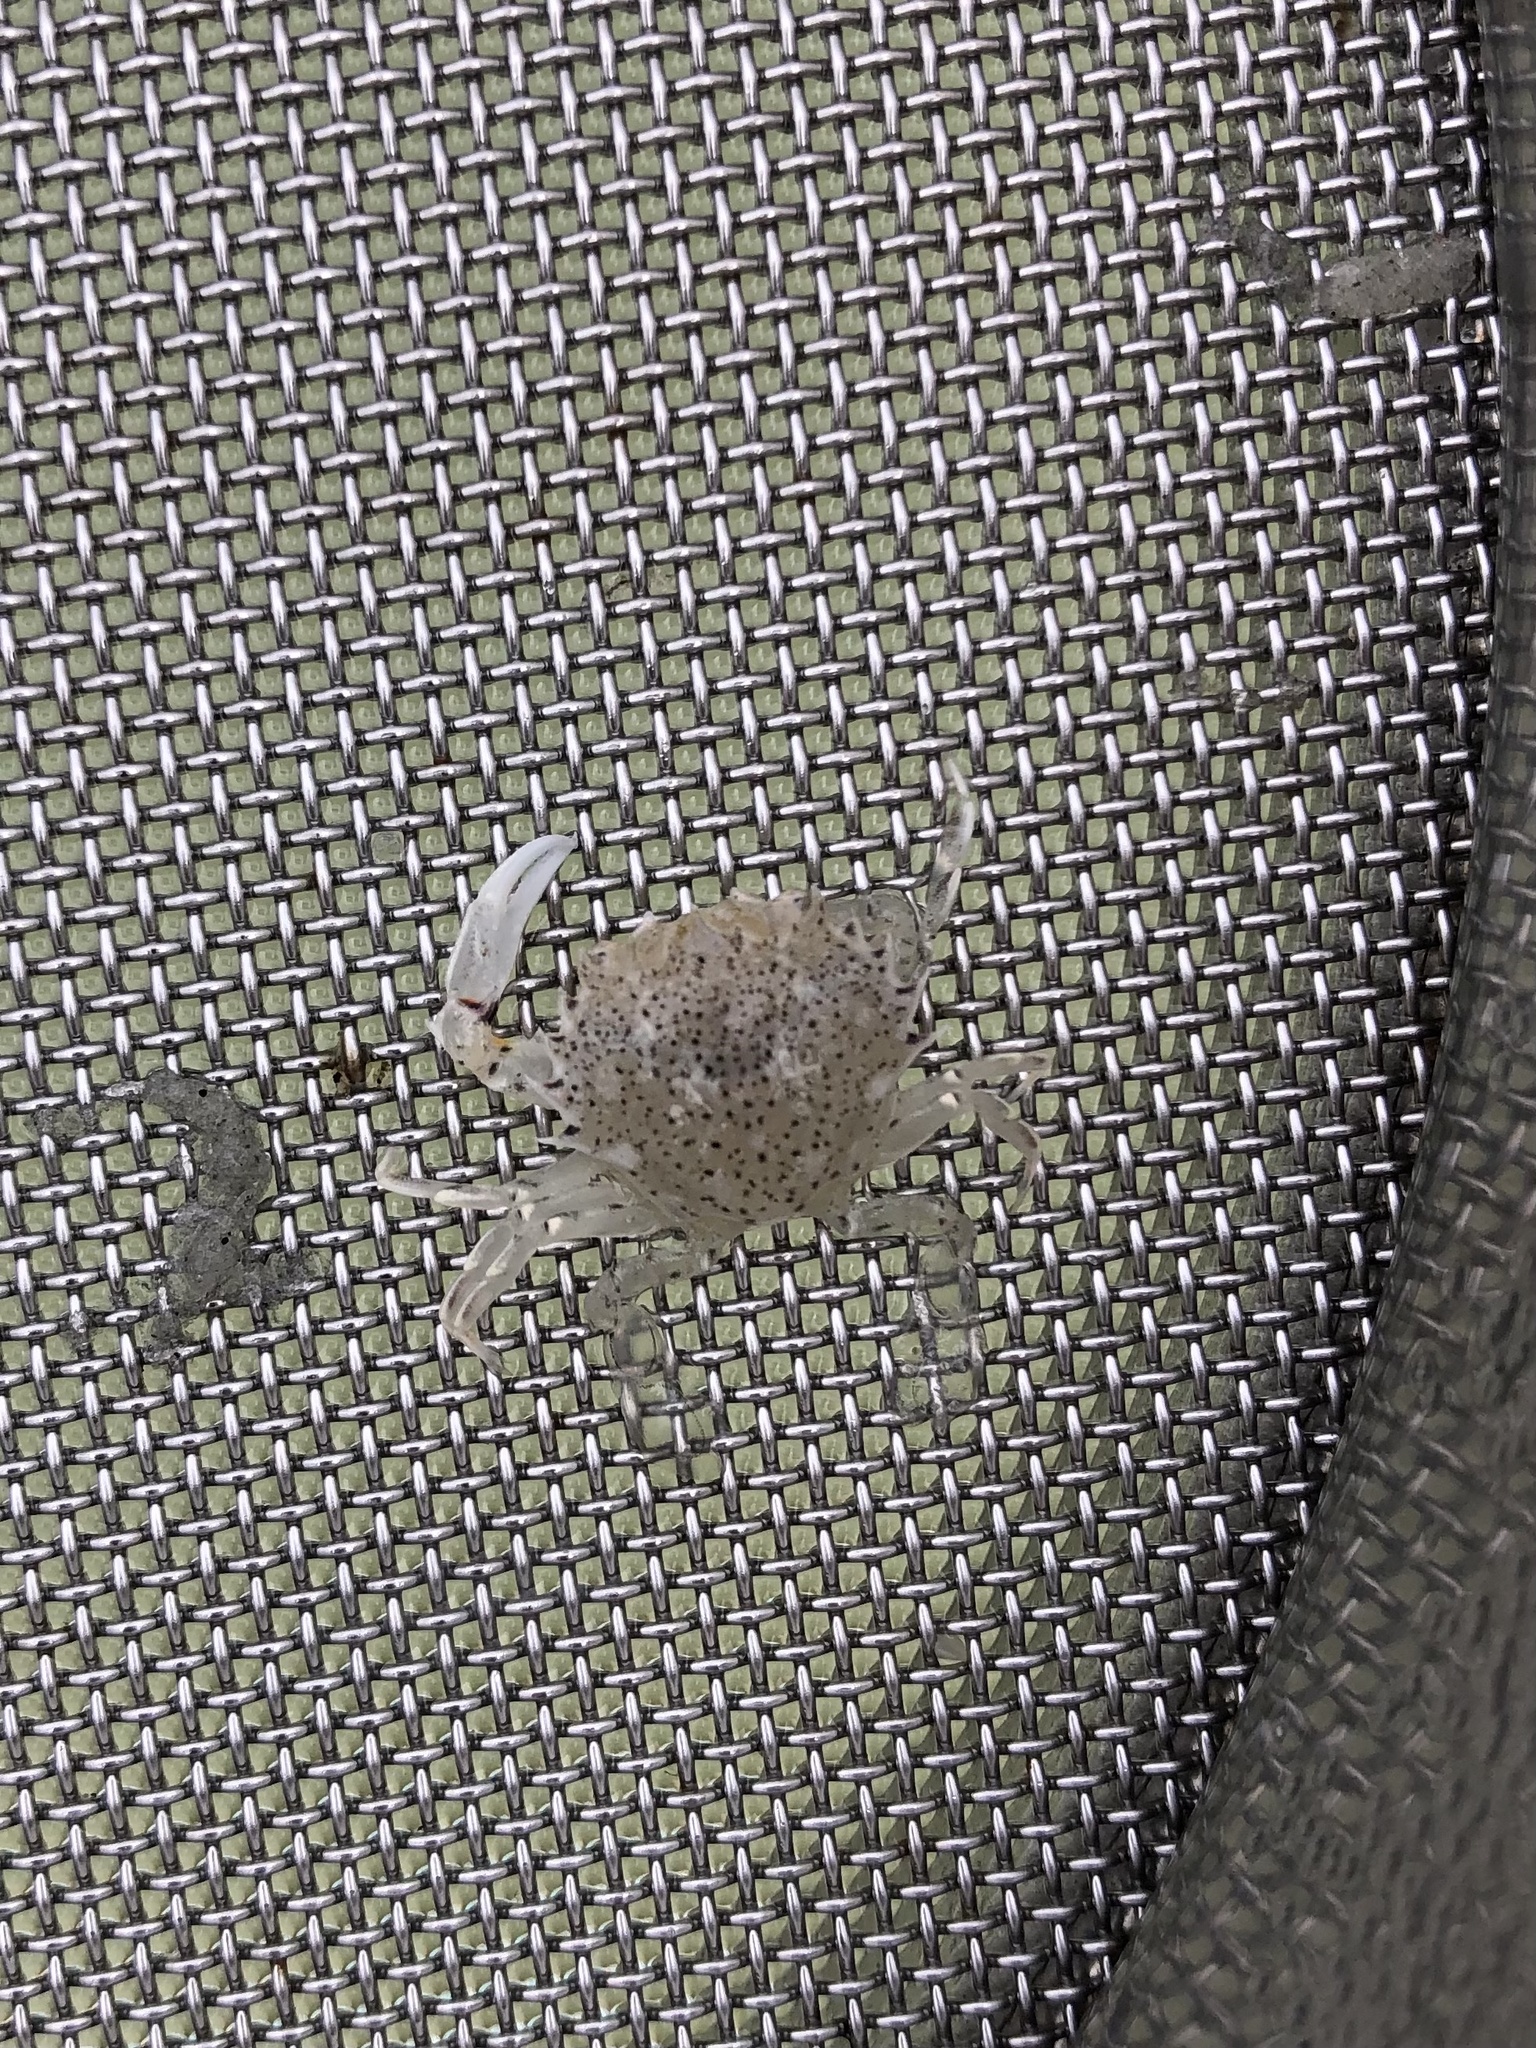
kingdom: Animalia
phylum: Arthropoda
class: Malacostraca
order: Decapoda
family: Ovalipidae
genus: Ovalipes
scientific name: Ovalipes ocellatus
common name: Lady crab
